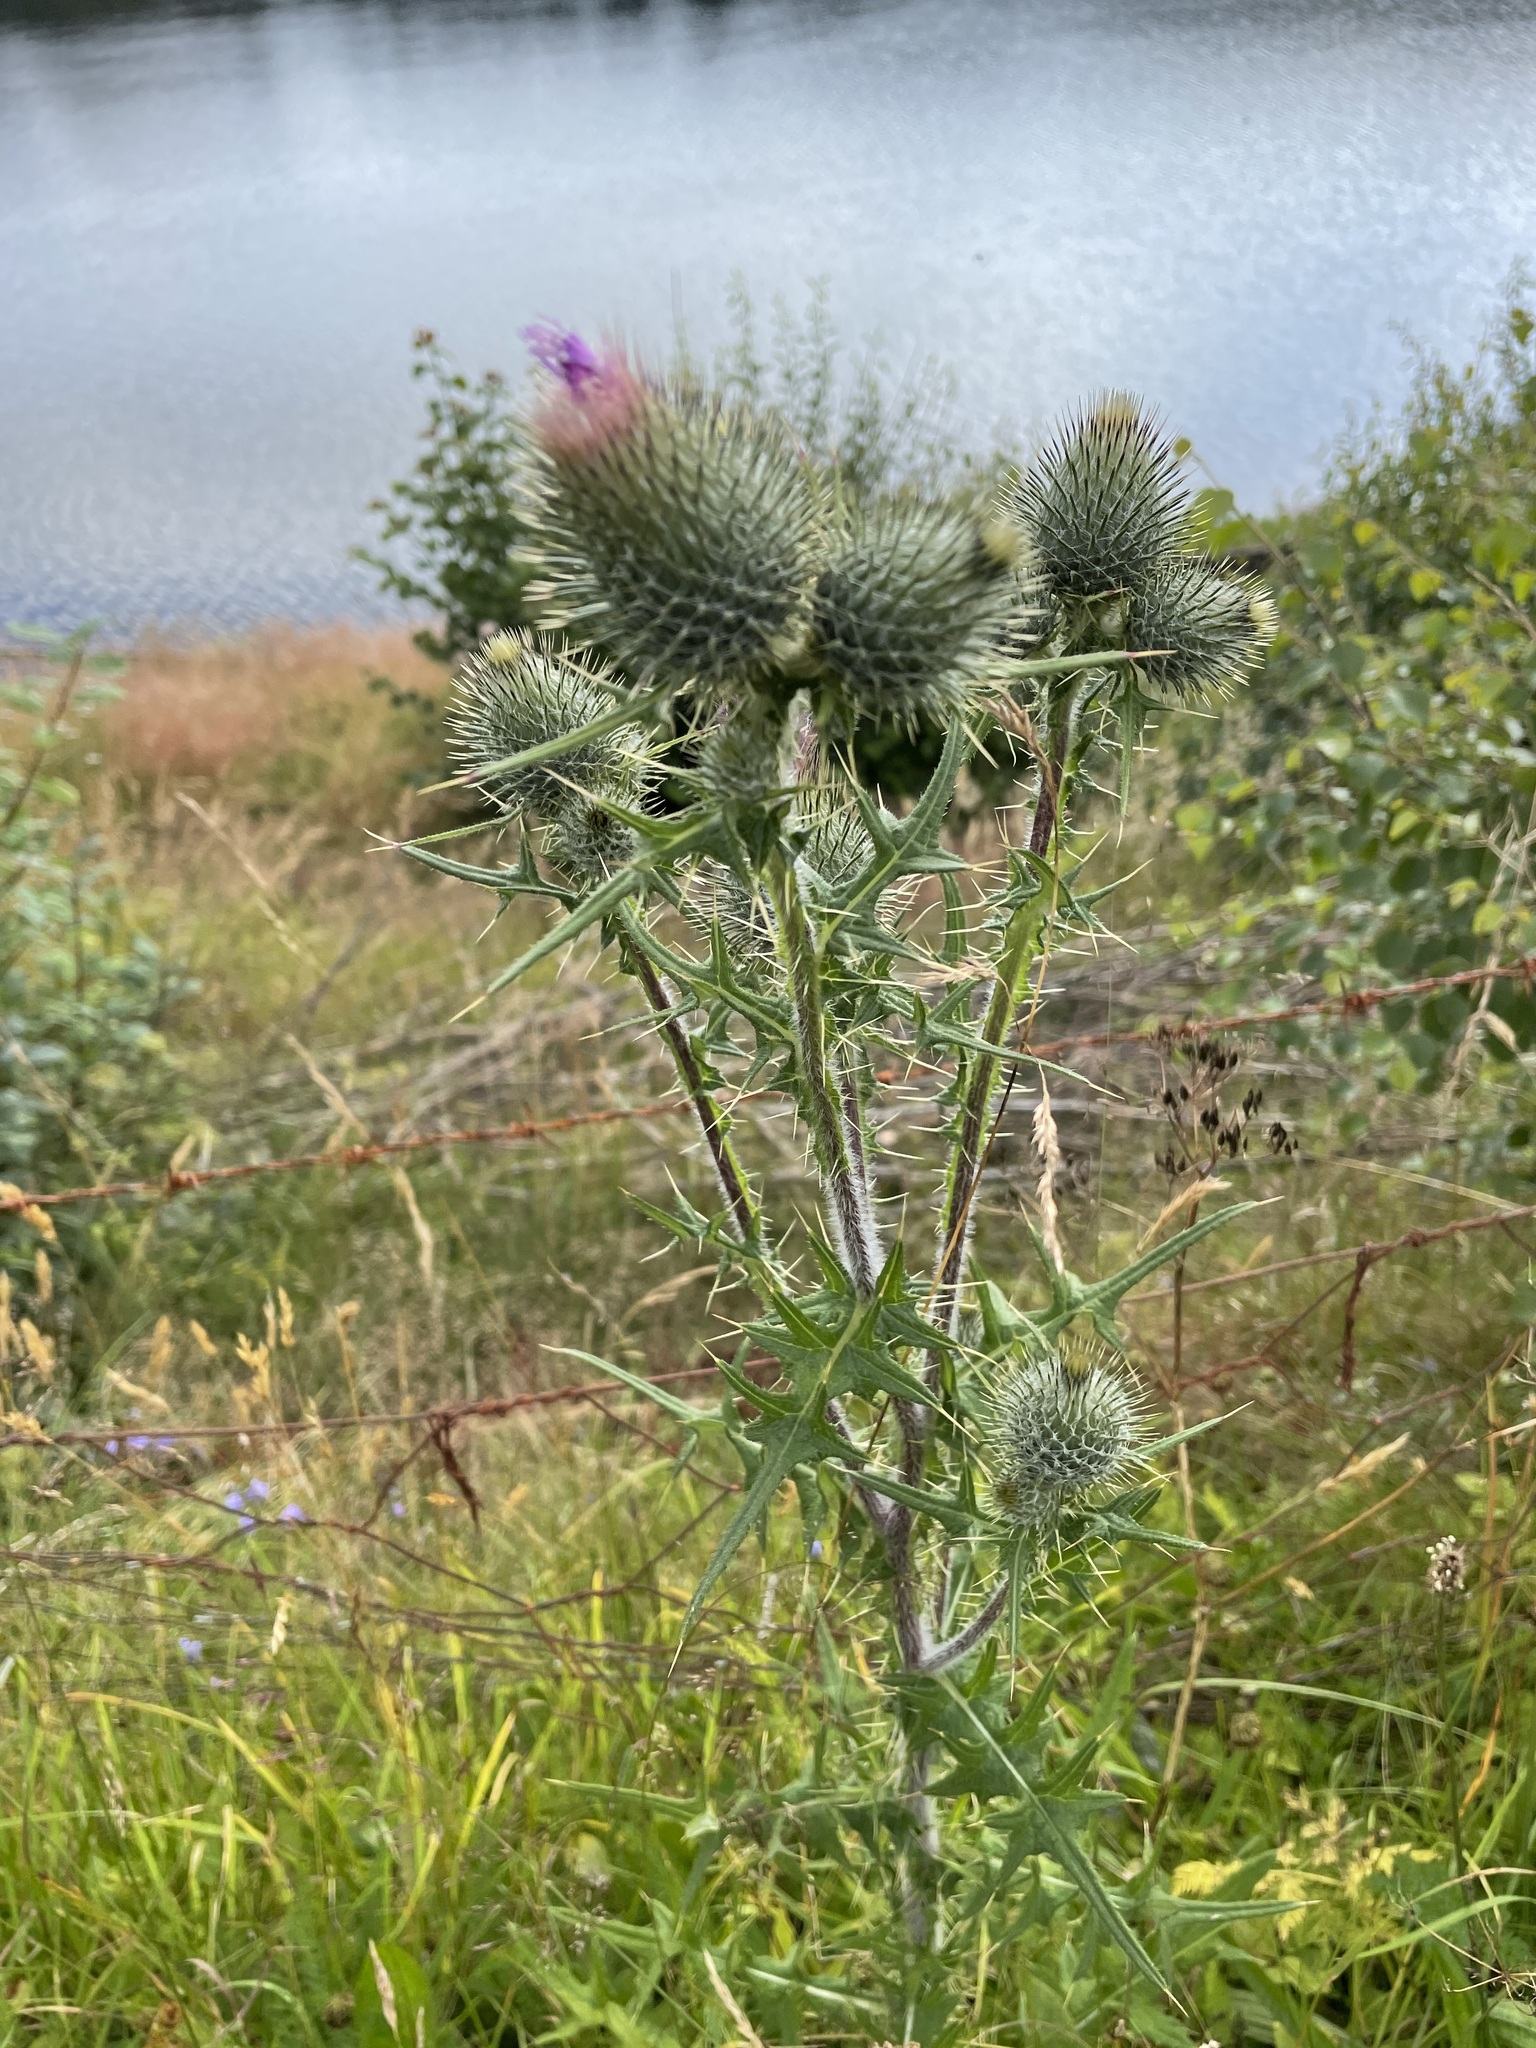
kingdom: Plantae
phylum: Tracheophyta
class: Magnoliopsida
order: Asterales
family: Asteraceae
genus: Cirsium
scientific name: Cirsium vulgare
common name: Bull thistle
